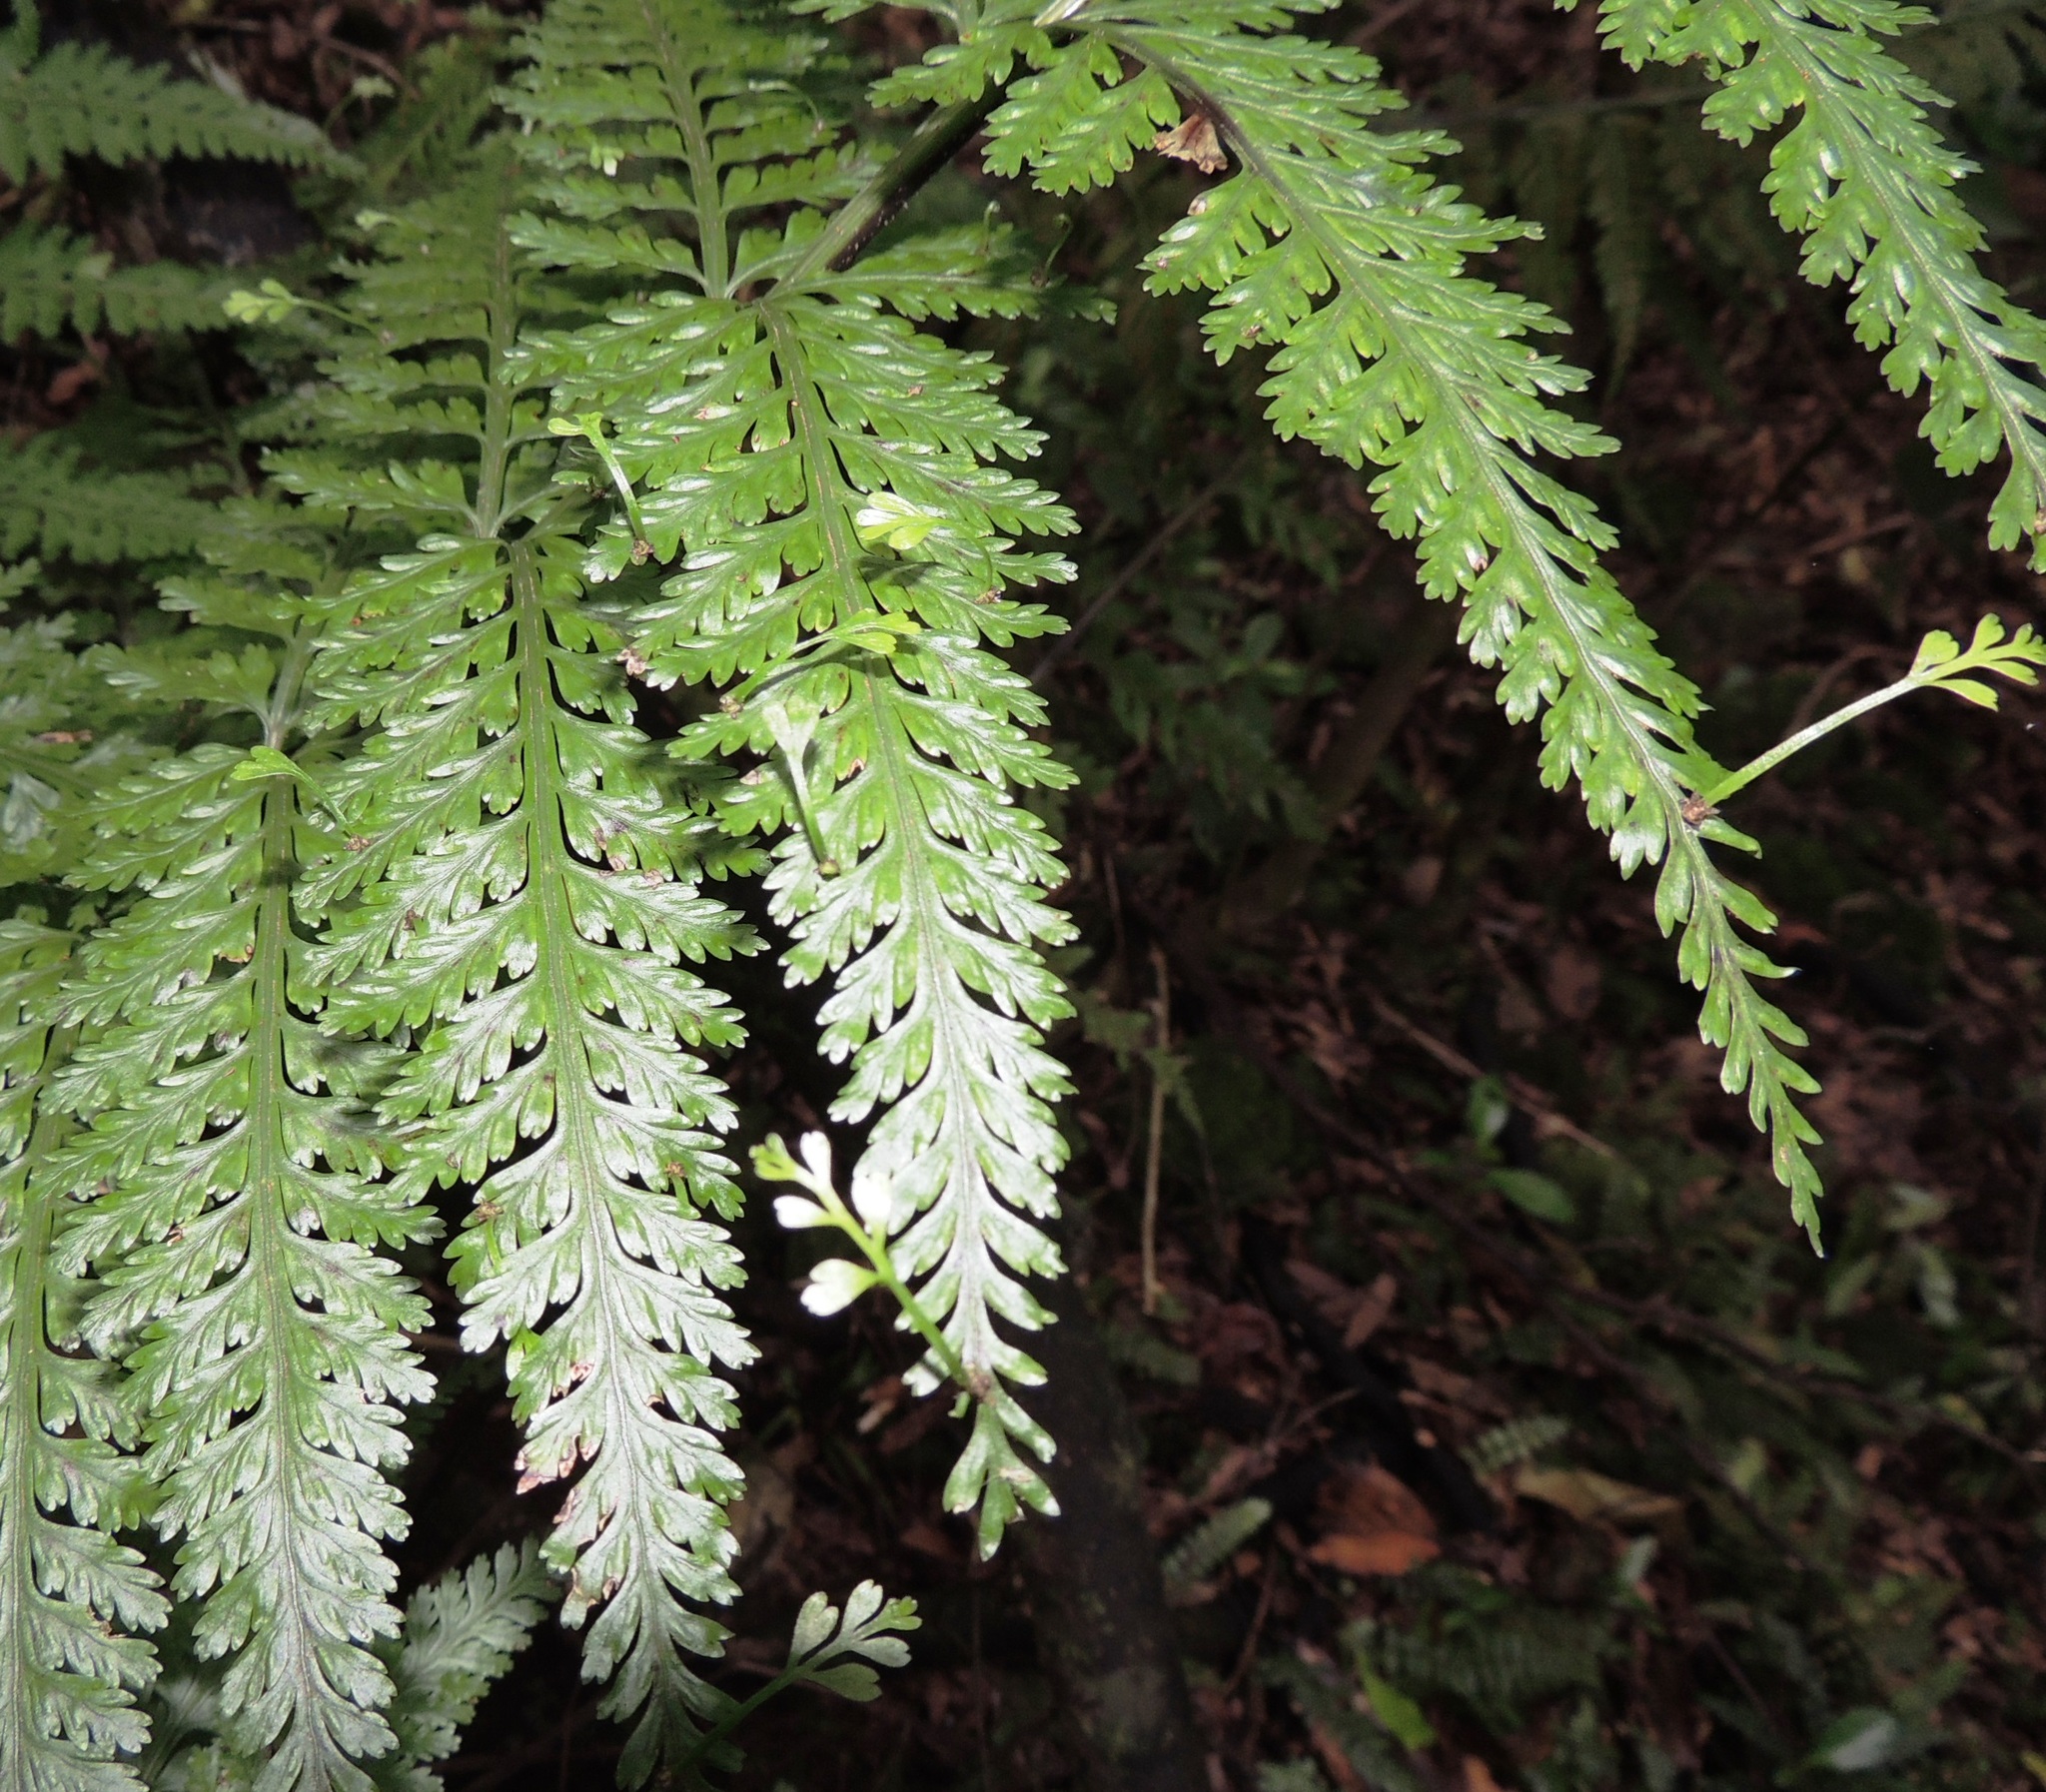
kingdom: Plantae
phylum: Tracheophyta
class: Polypodiopsida
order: Polypodiales
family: Aspleniaceae
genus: Asplenium
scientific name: Asplenium bulbiferum
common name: Mother fern
